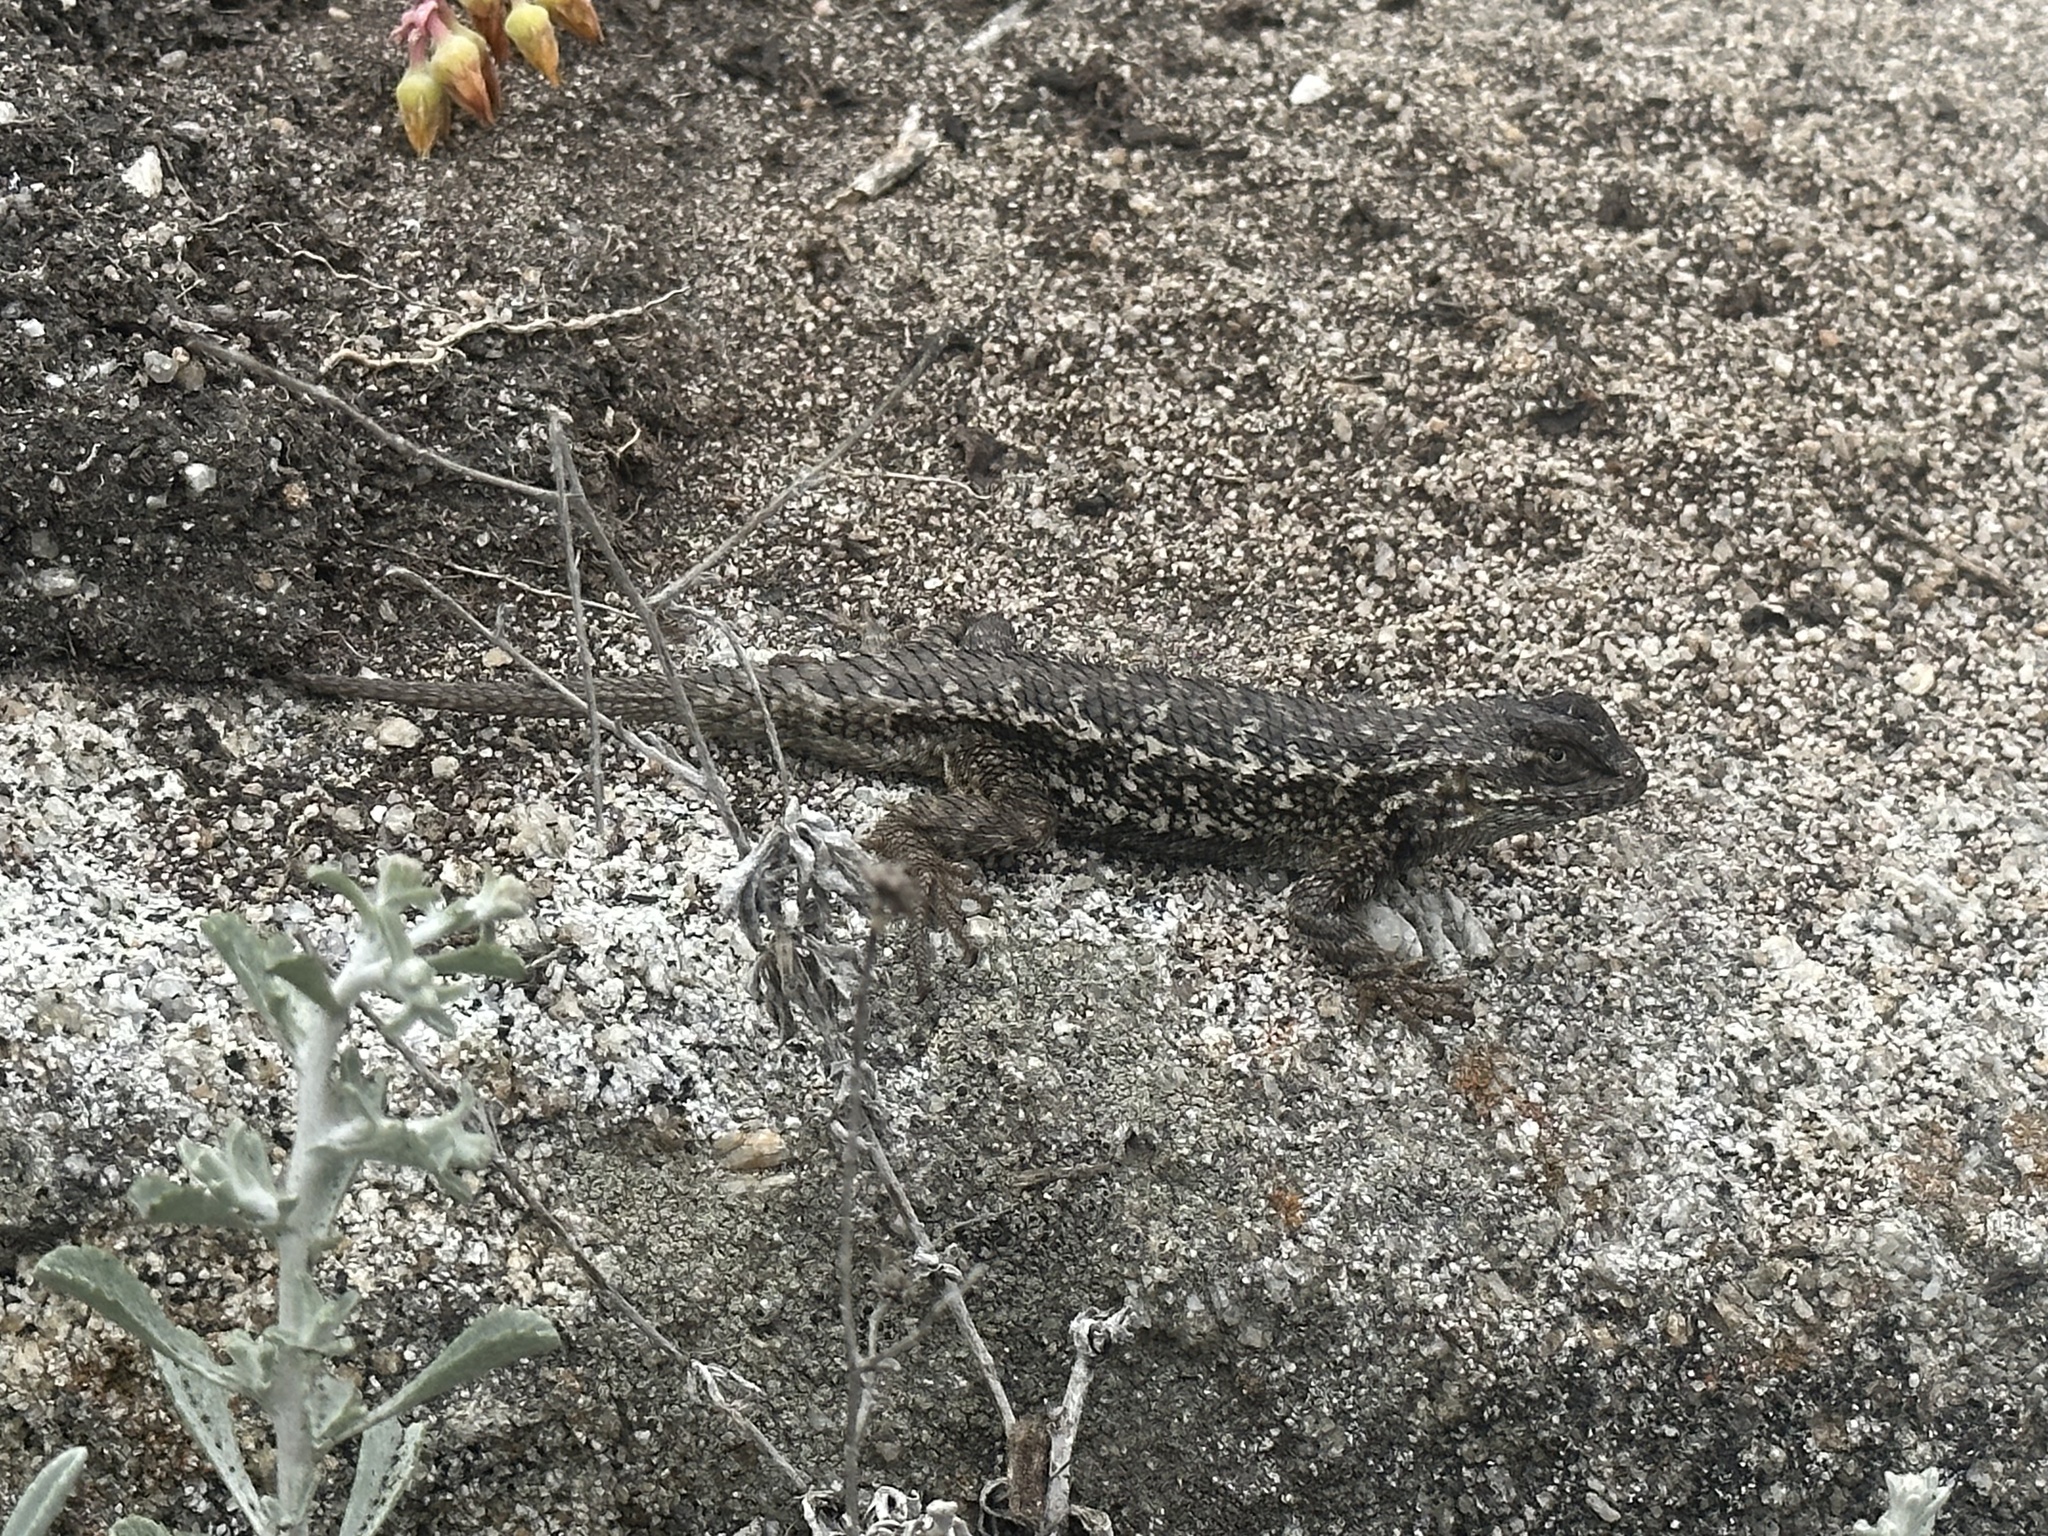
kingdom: Animalia
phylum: Chordata
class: Squamata
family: Phrynosomatidae
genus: Sceloporus
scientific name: Sceloporus occidentalis
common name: Western fence lizard
